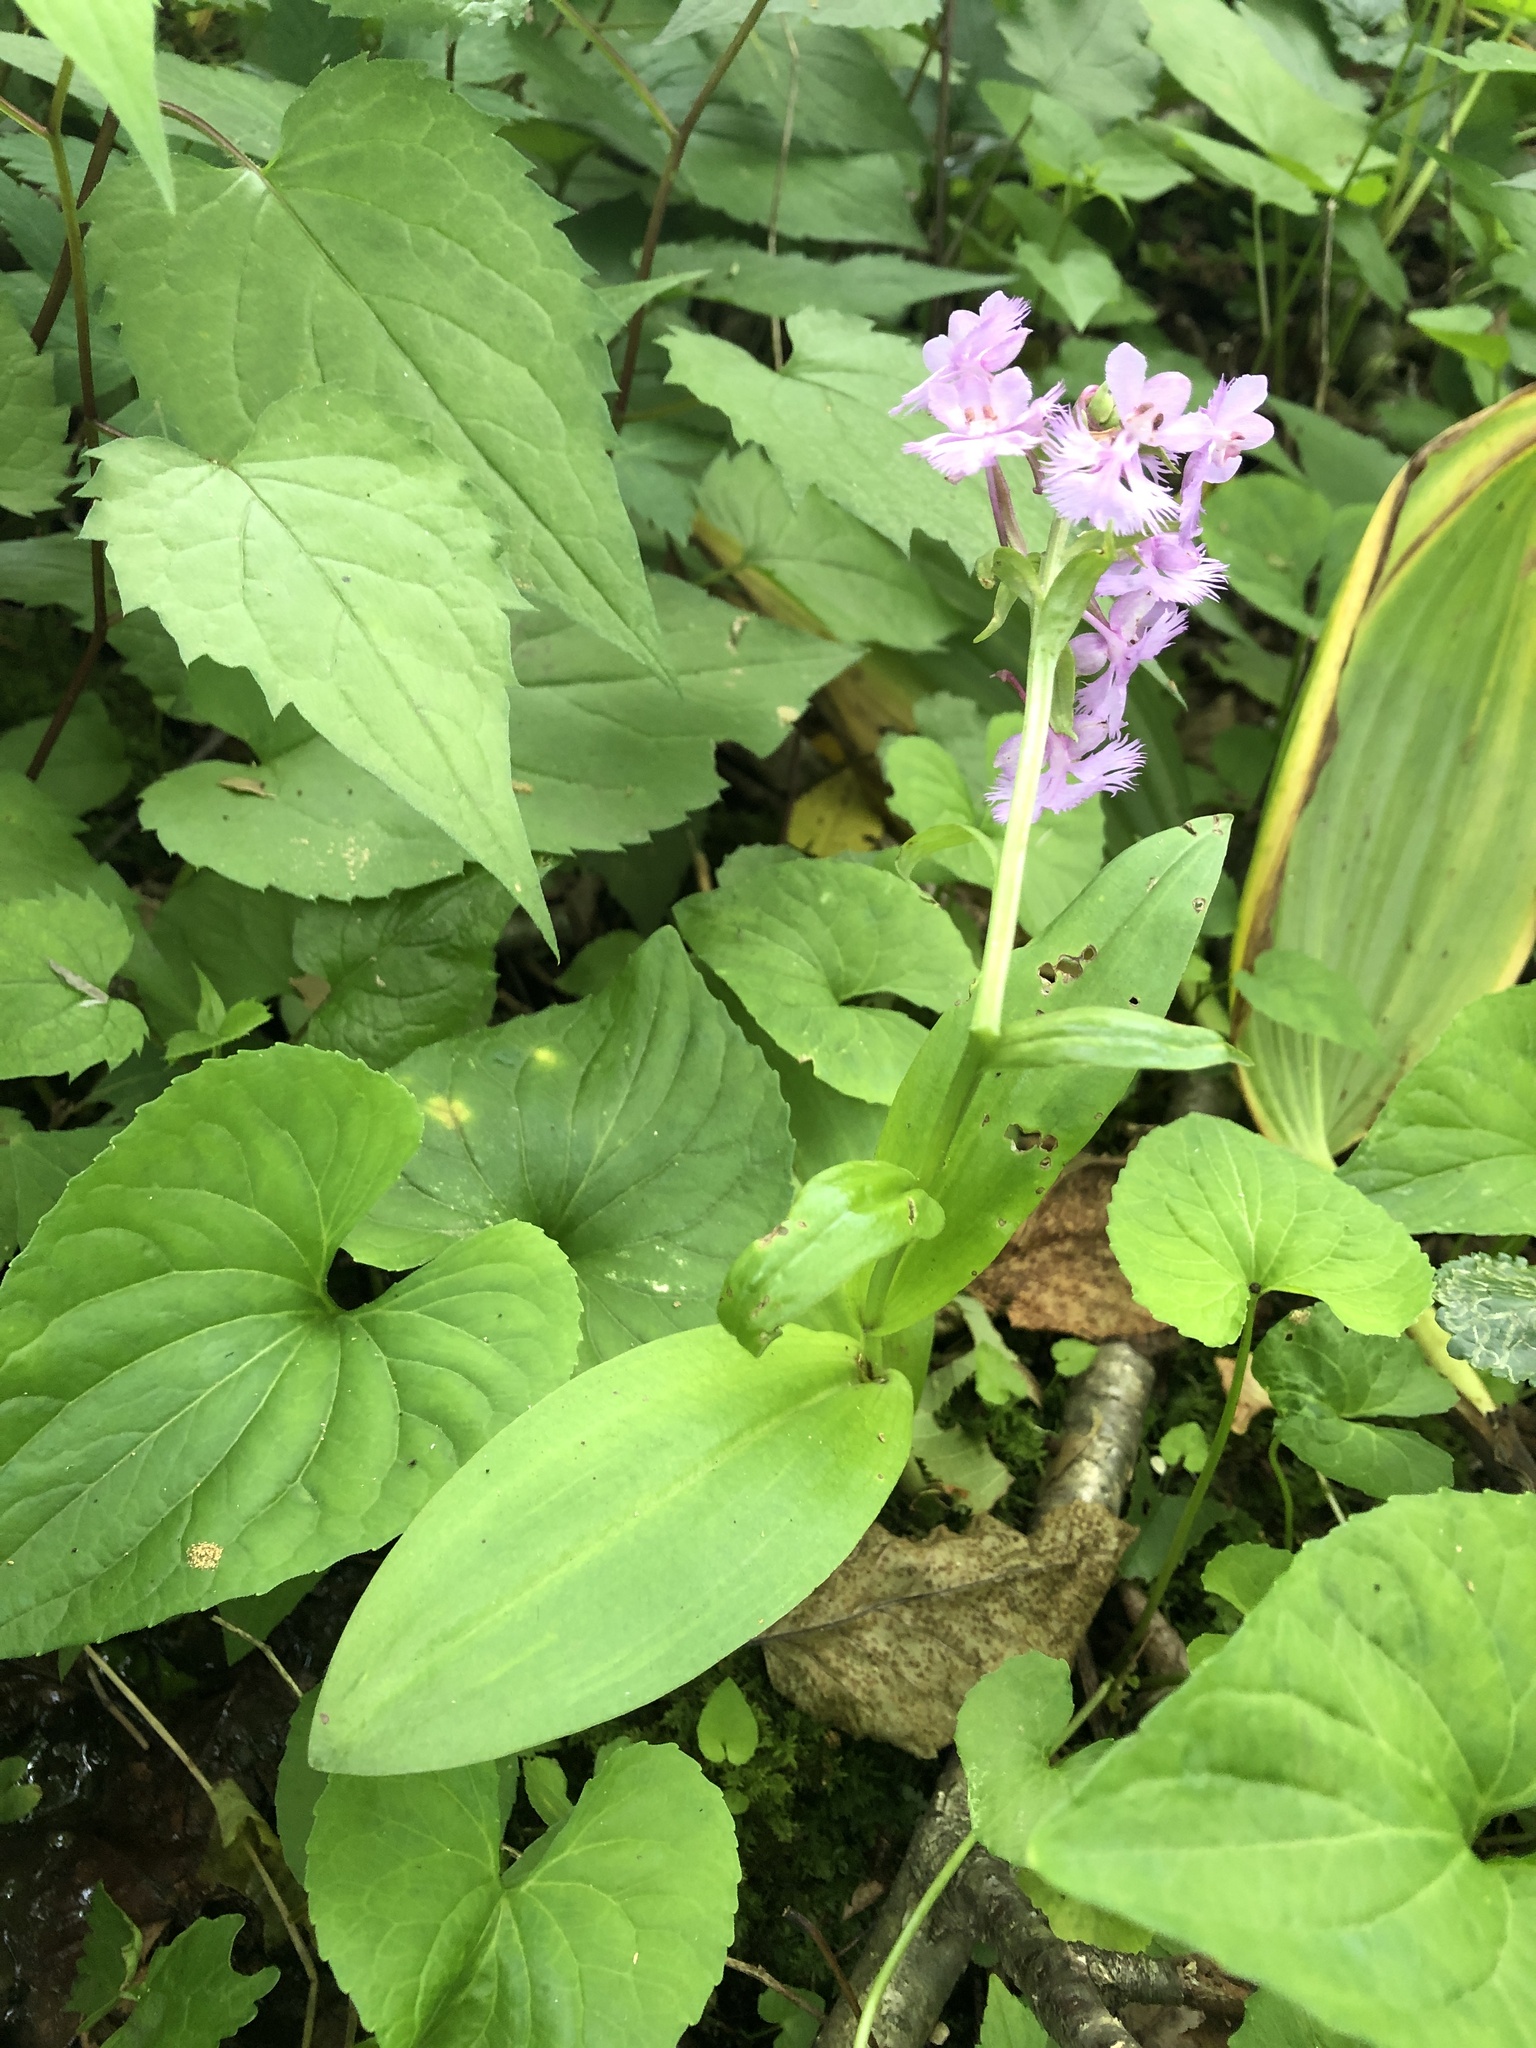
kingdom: Plantae
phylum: Tracheophyta
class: Liliopsida
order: Asparagales
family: Orchidaceae
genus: Platanthera
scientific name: Platanthera grandiflora
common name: Greater purple fringed orchid
